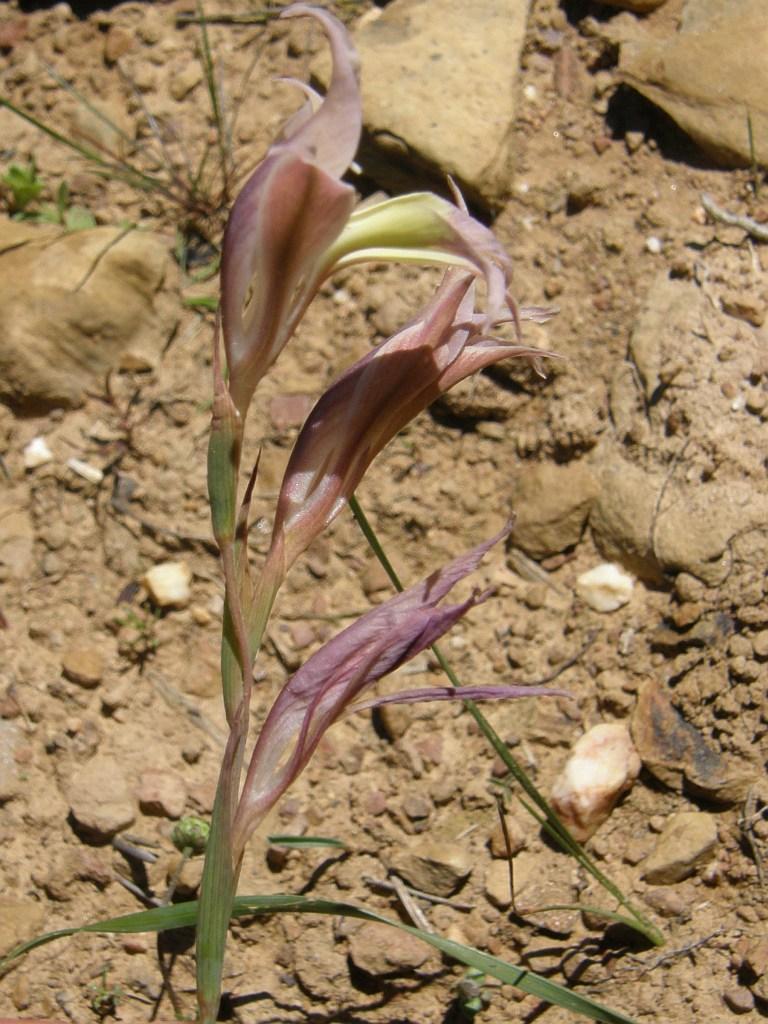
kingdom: Plantae
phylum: Tracheophyta
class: Liliopsida
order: Asparagales
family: Iridaceae
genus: Gladiolus
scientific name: Gladiolus permeabilis
